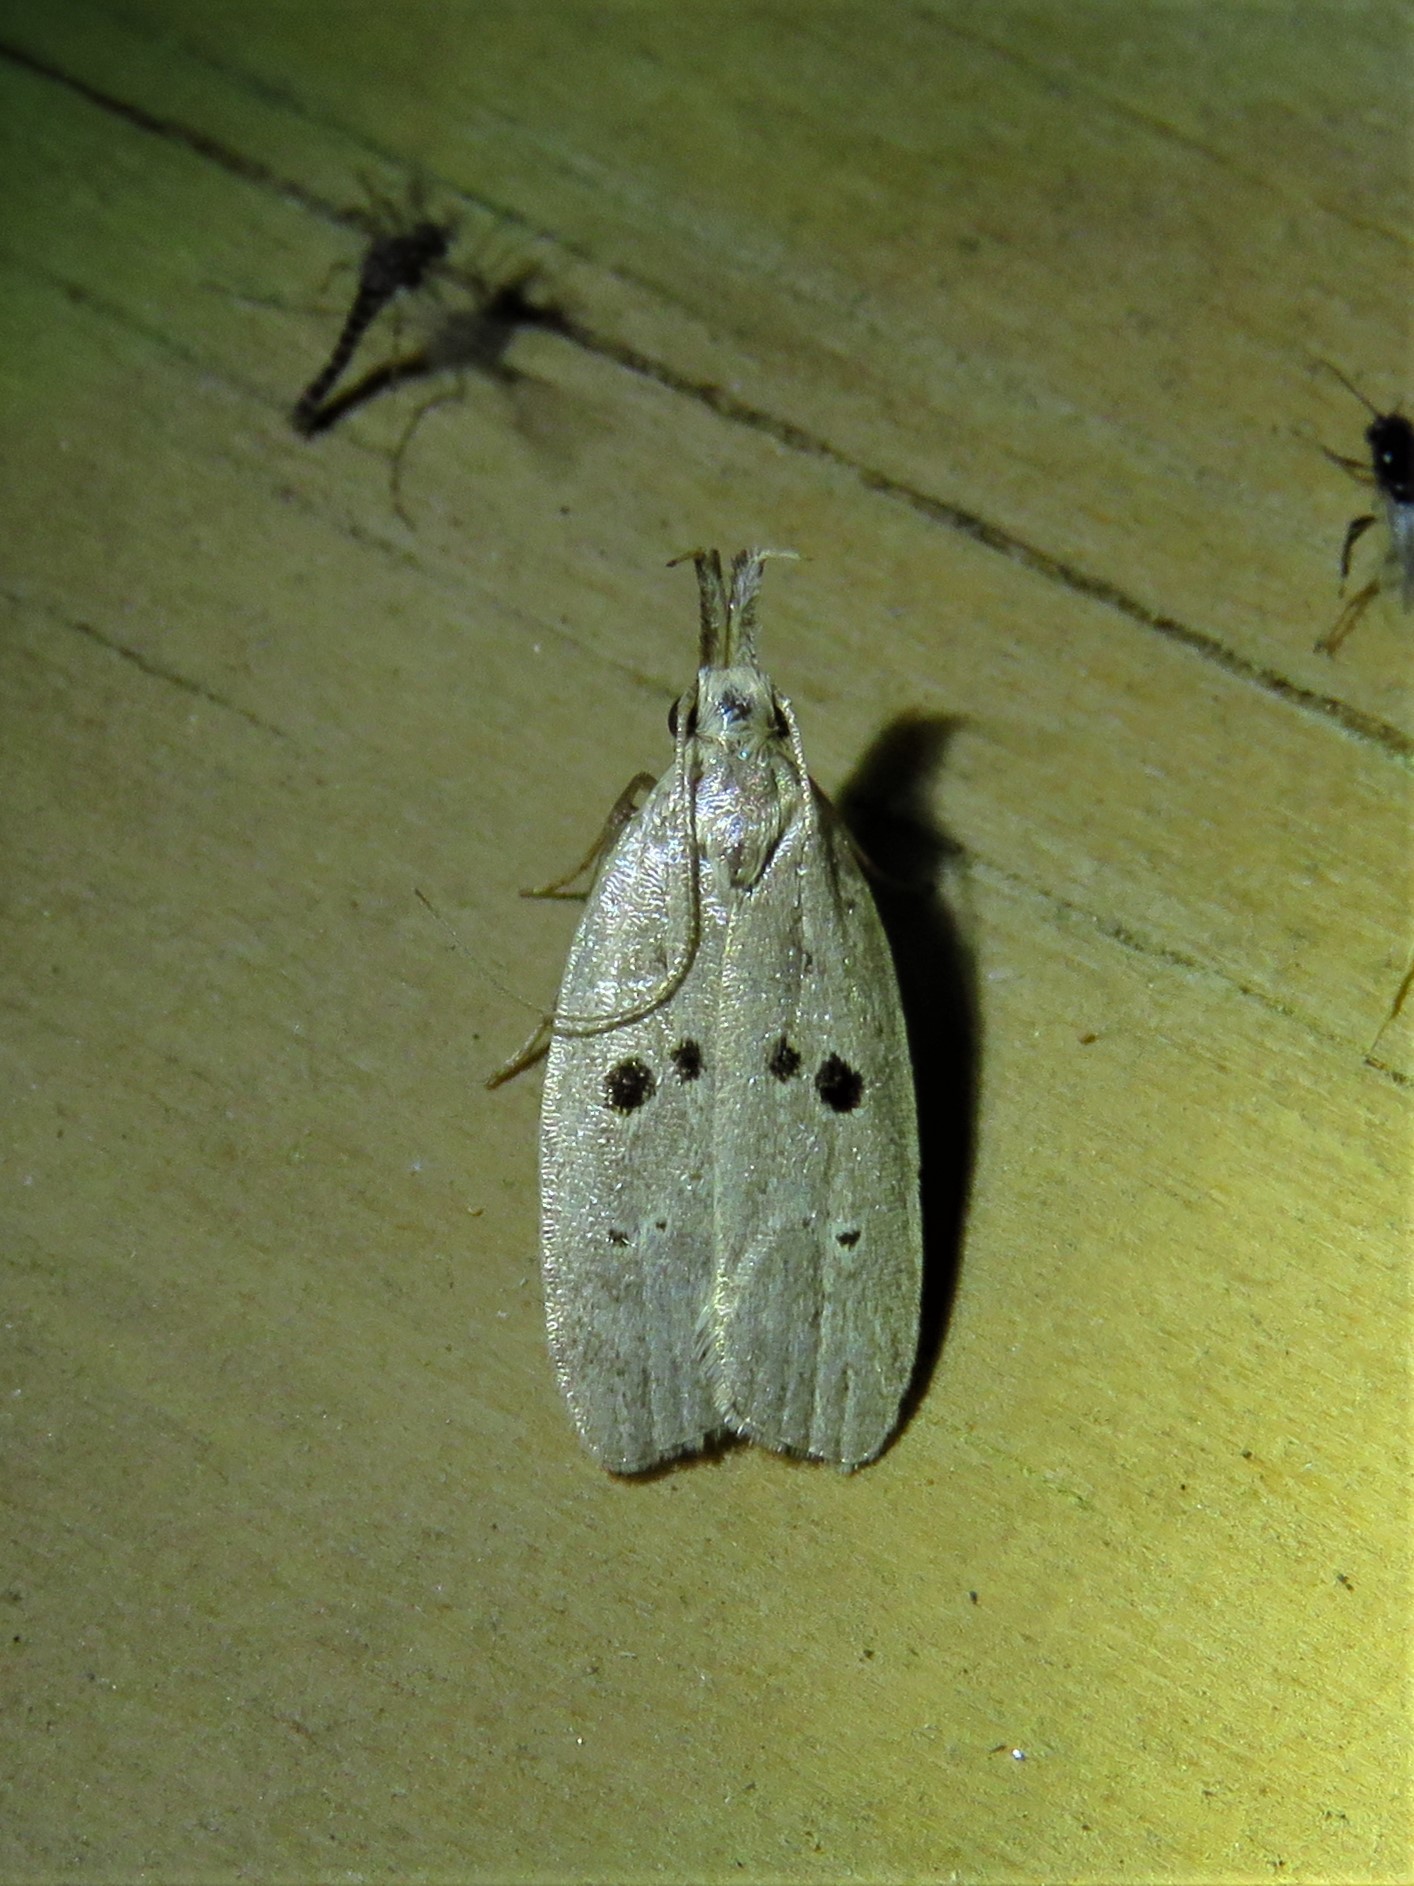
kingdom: Animalia
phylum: Arthropoda
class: Insecta
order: Lepidoptera
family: Gelechiidae
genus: Dichomeris
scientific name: Dichomeris glenni
